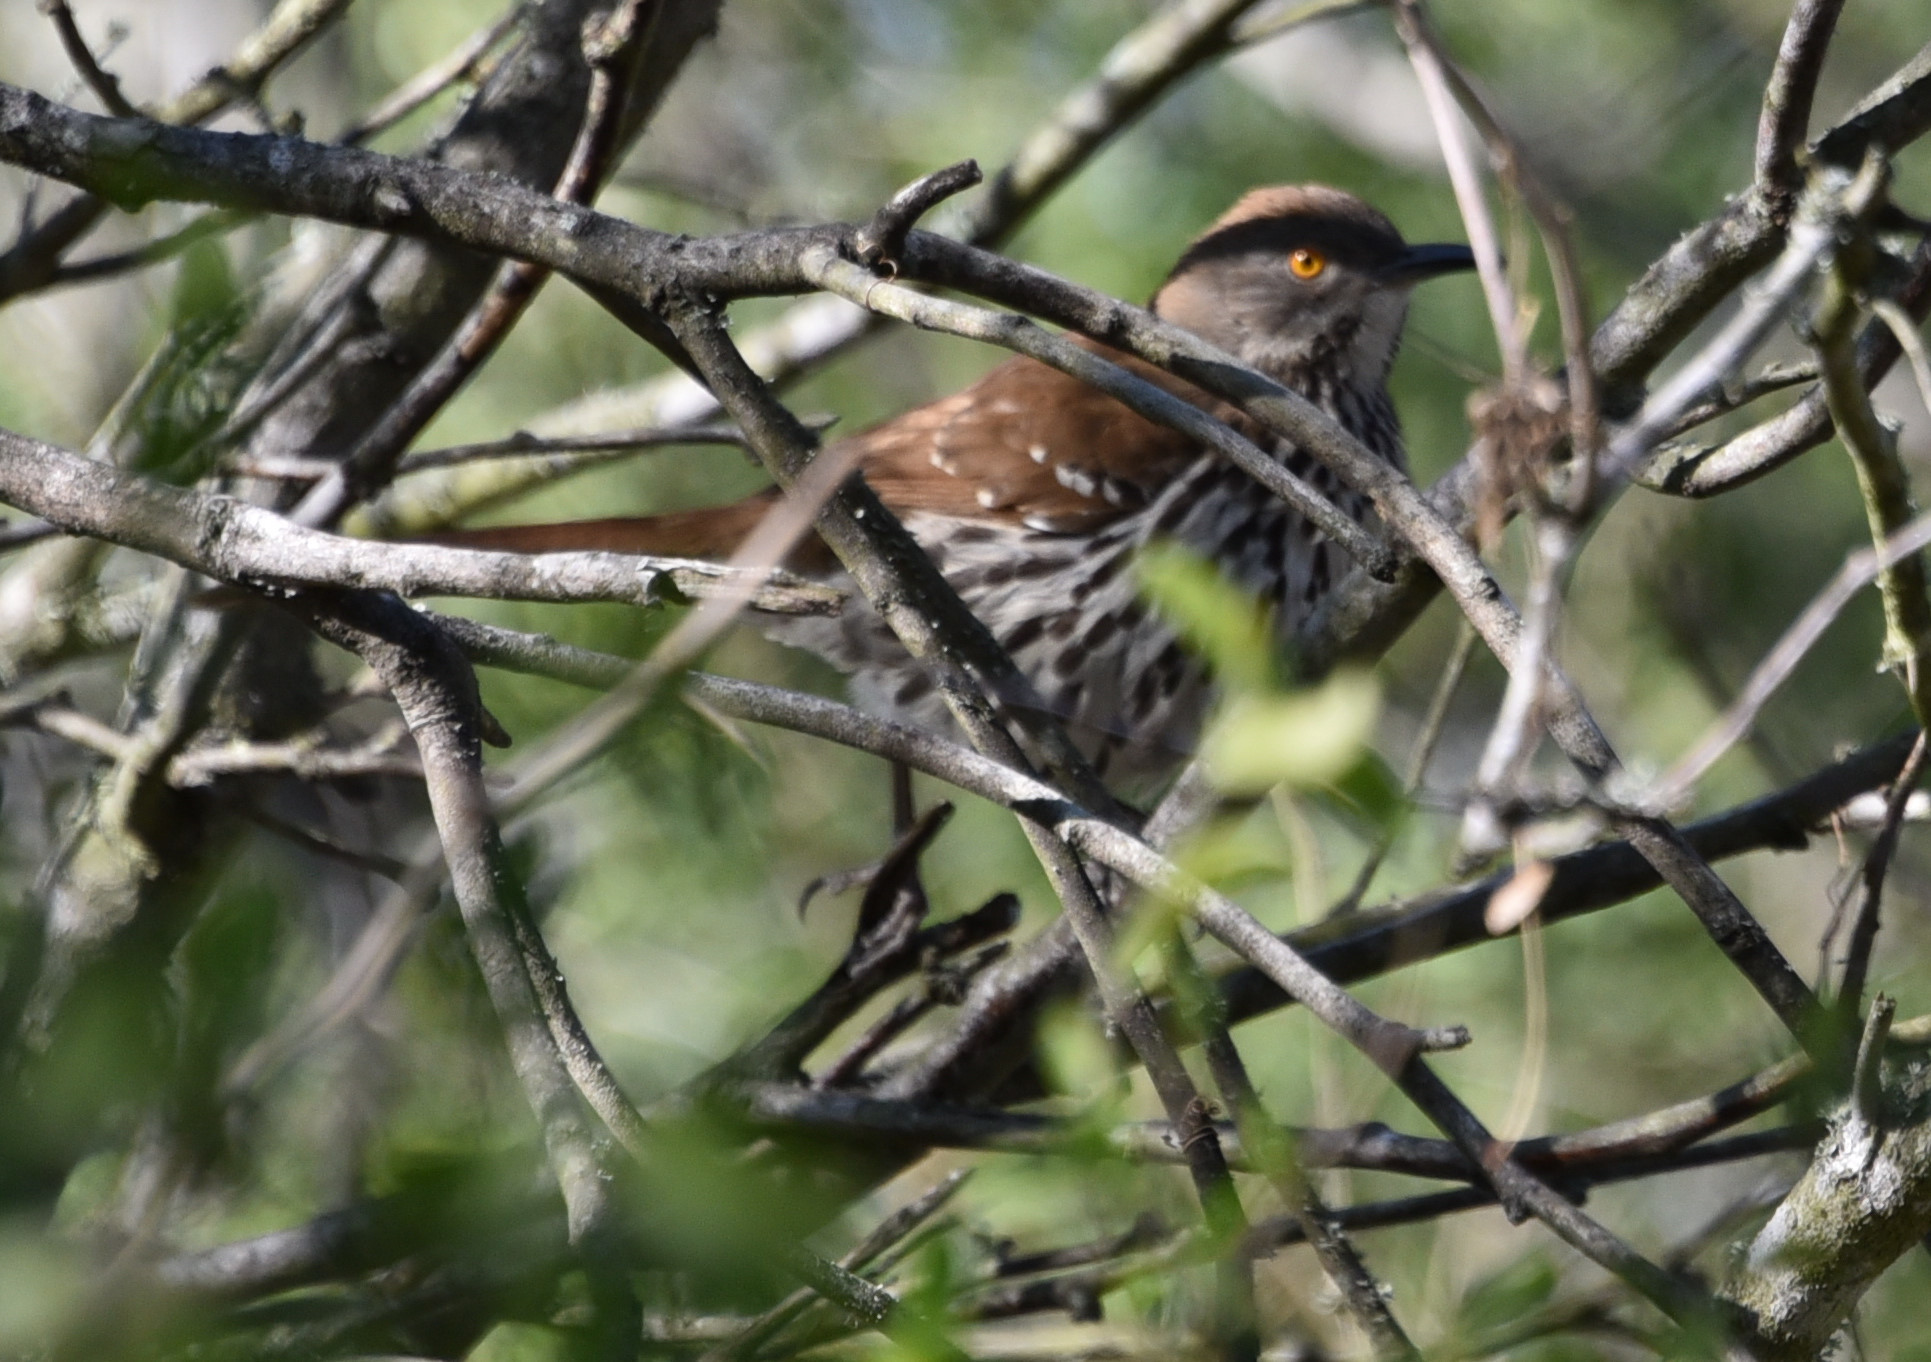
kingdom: Animalia
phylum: Chordata
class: Aves
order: Passeriformes
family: Mimidae
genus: Toxostoma
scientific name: Toxostoma longirostre
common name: Long-billed thrasher
